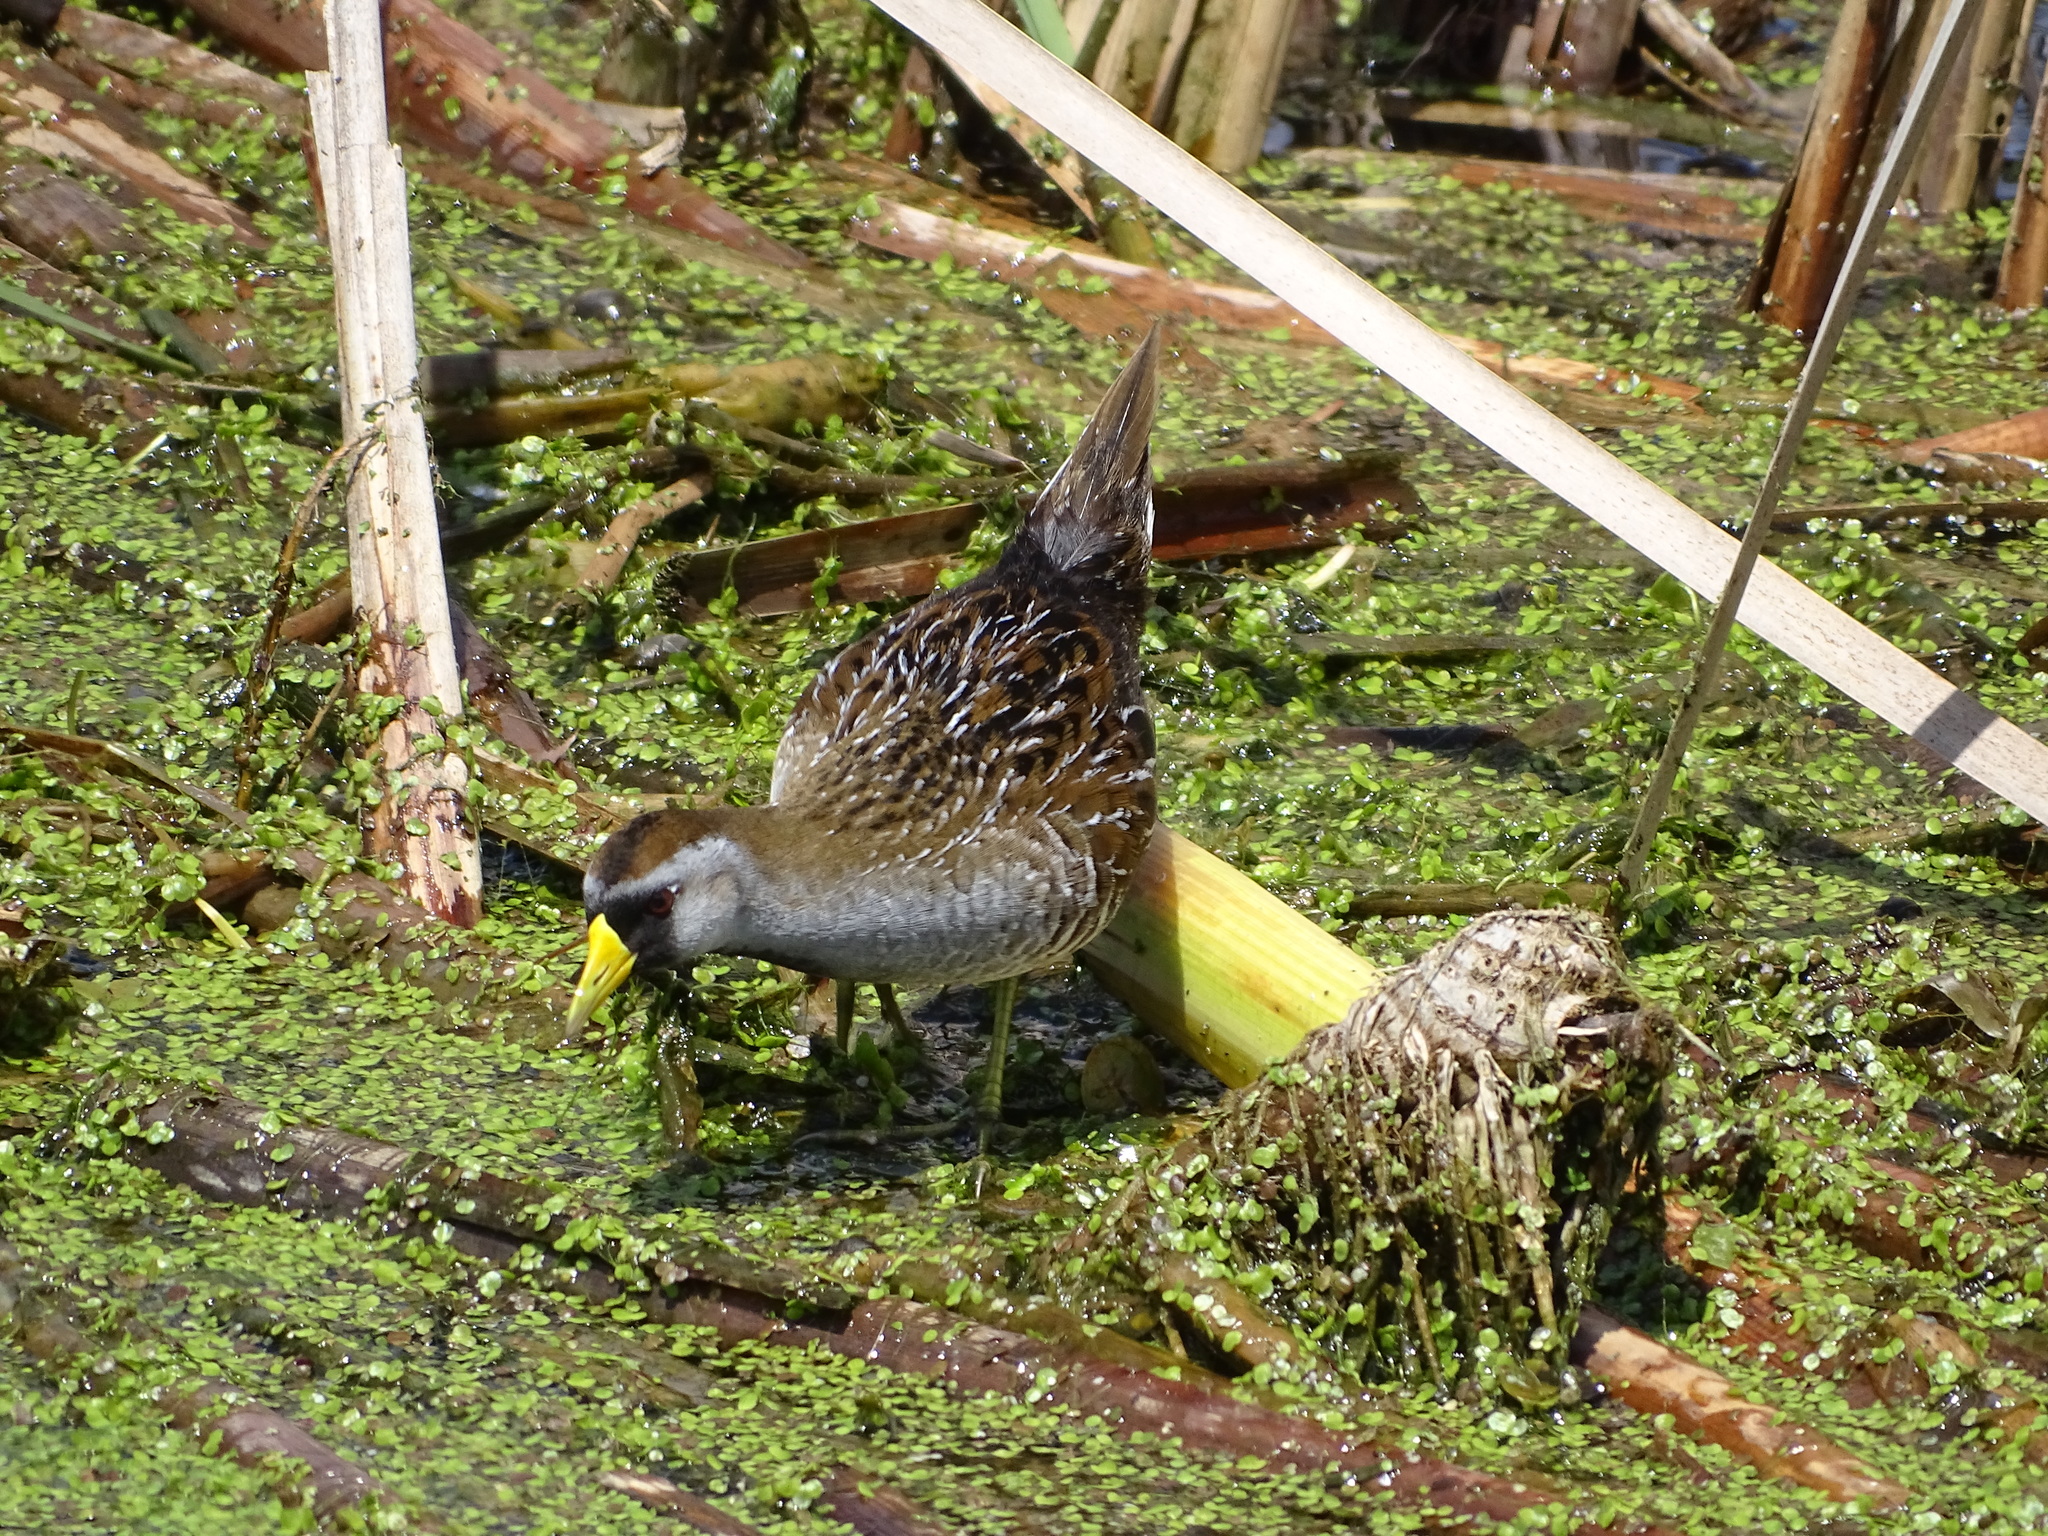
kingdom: Animalia
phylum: Chordata
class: Aves
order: Gruiformes
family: Rallidae
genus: Porzana
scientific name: Porzana carolina
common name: Sora
